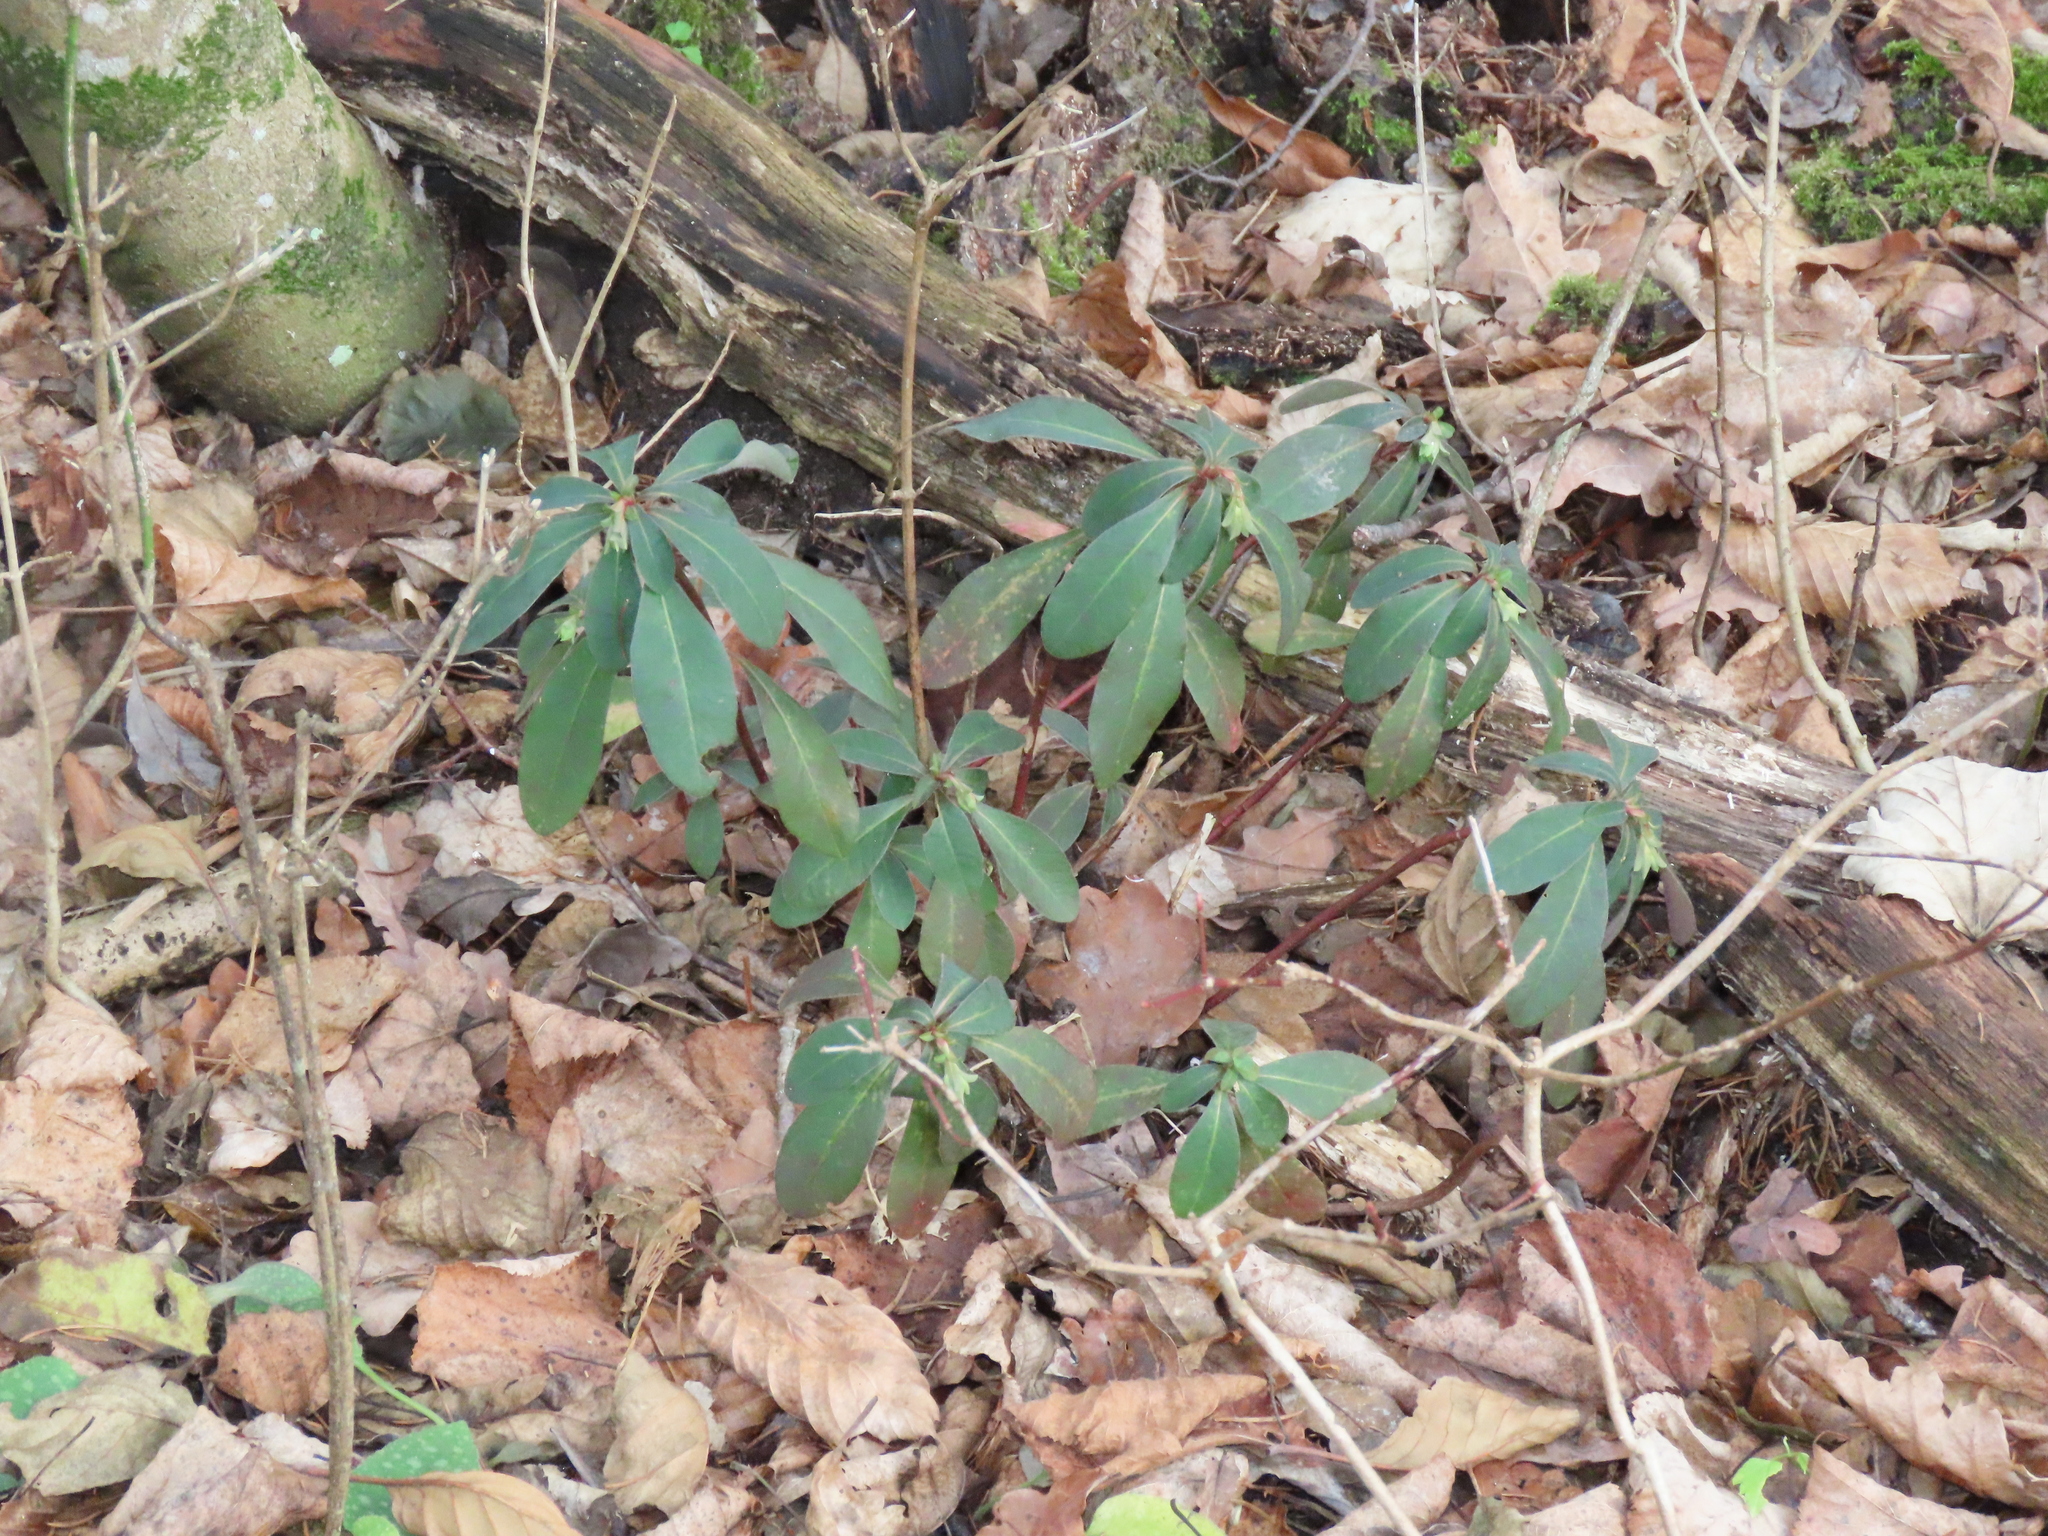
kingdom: Plantae
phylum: Tracheophyta
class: Magnoliopsida
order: Malpighiales
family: Euphorbiaceae
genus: Euphorbia
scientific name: Euphorbia amygdaloides
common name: Wood spurge
